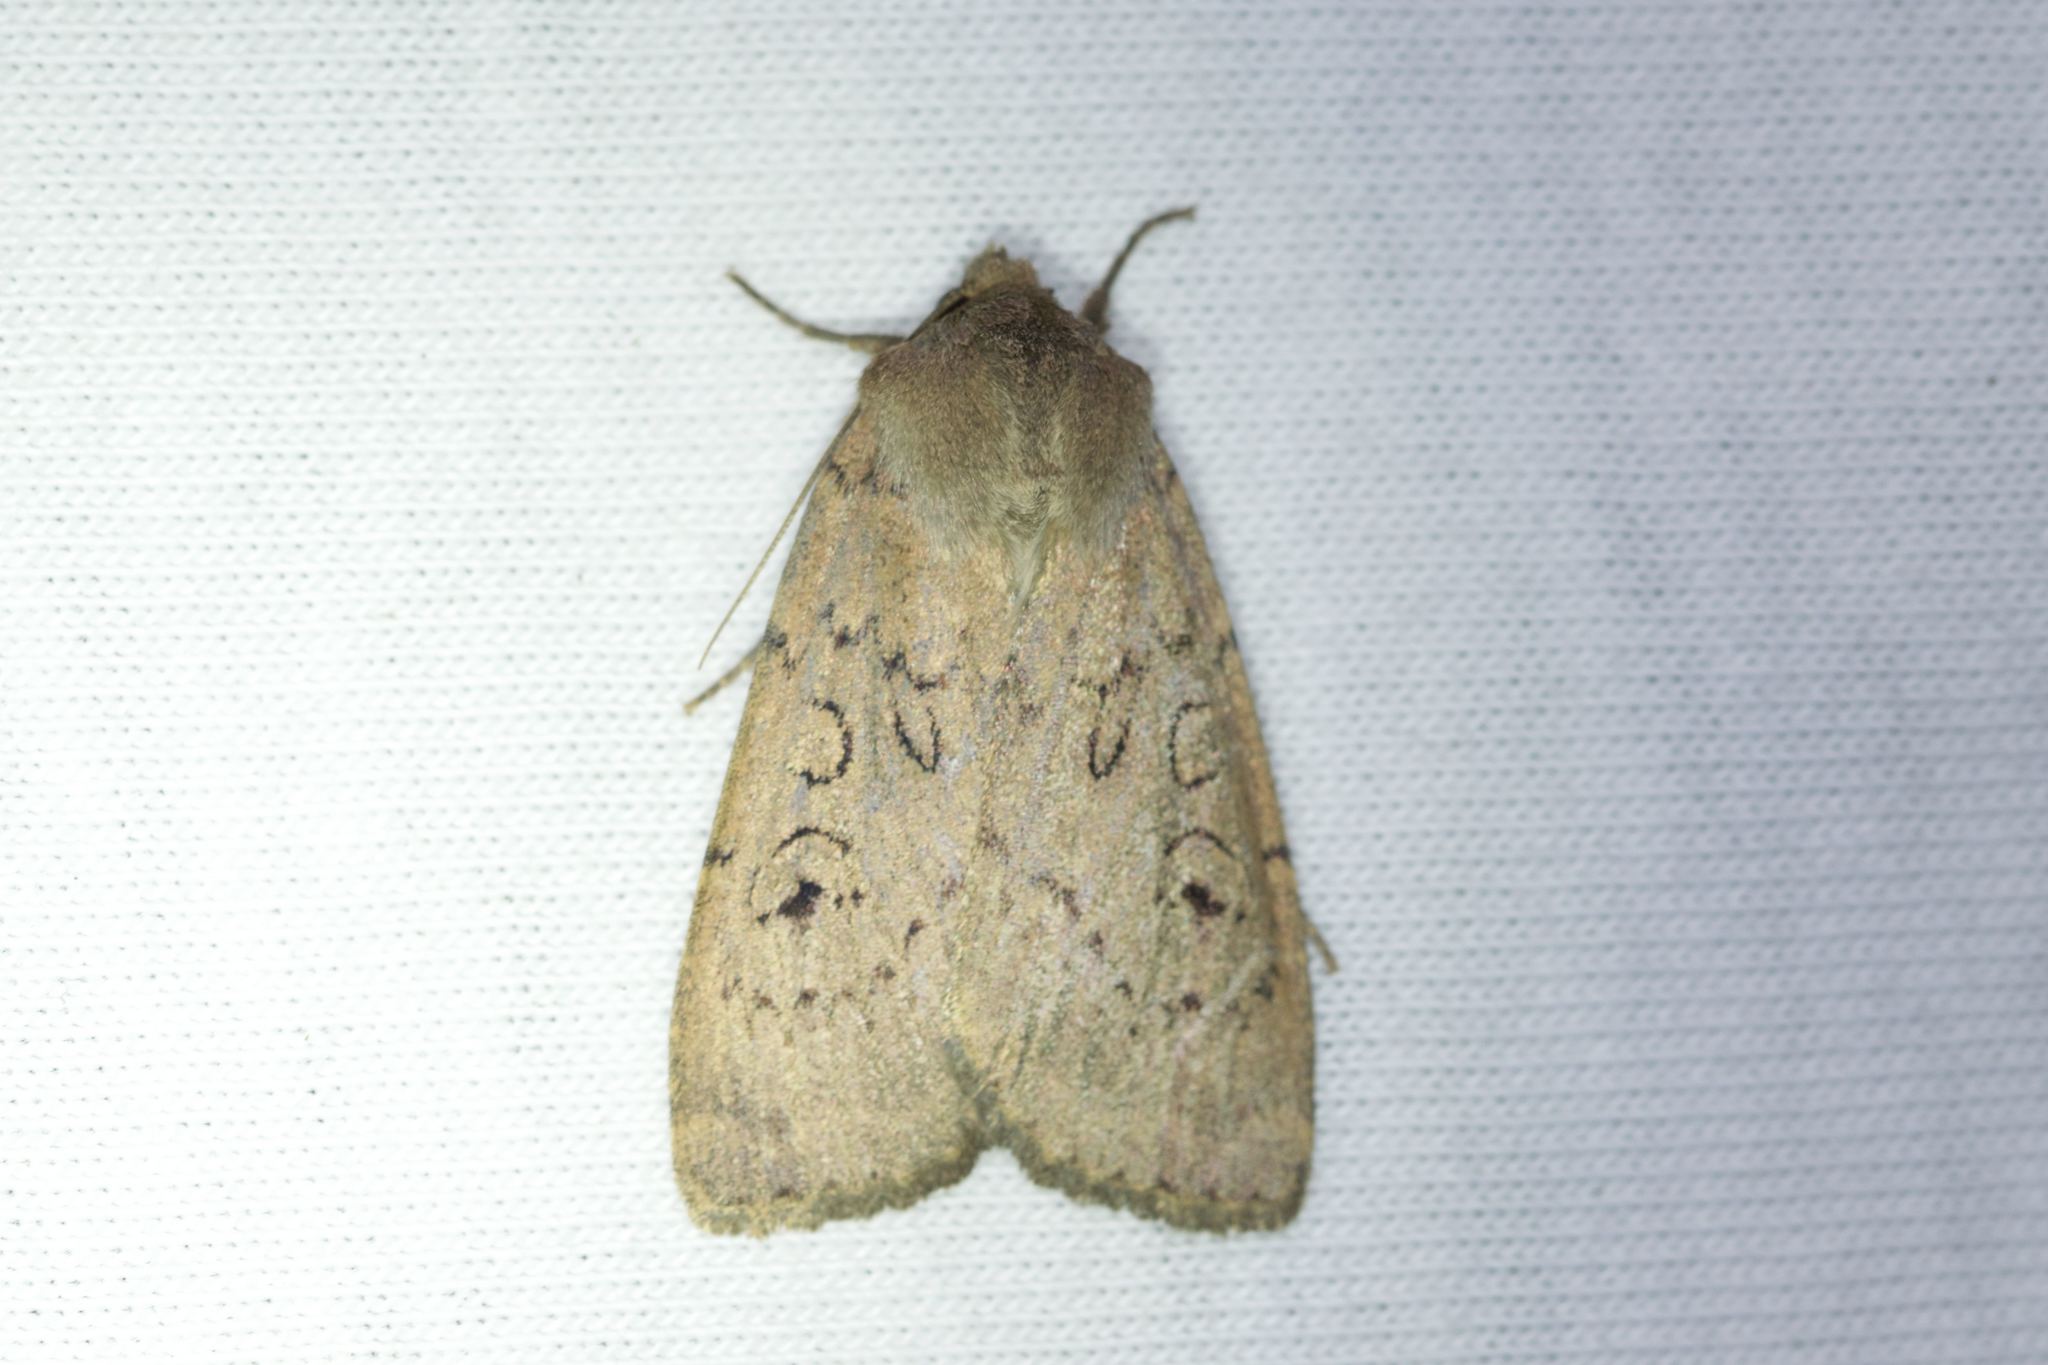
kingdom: Animalia
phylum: Arthropoda
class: Insecta
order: Lepidoptera
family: Noctuidae
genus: Graphiphora
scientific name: Graphiphora augur
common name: Double dart
